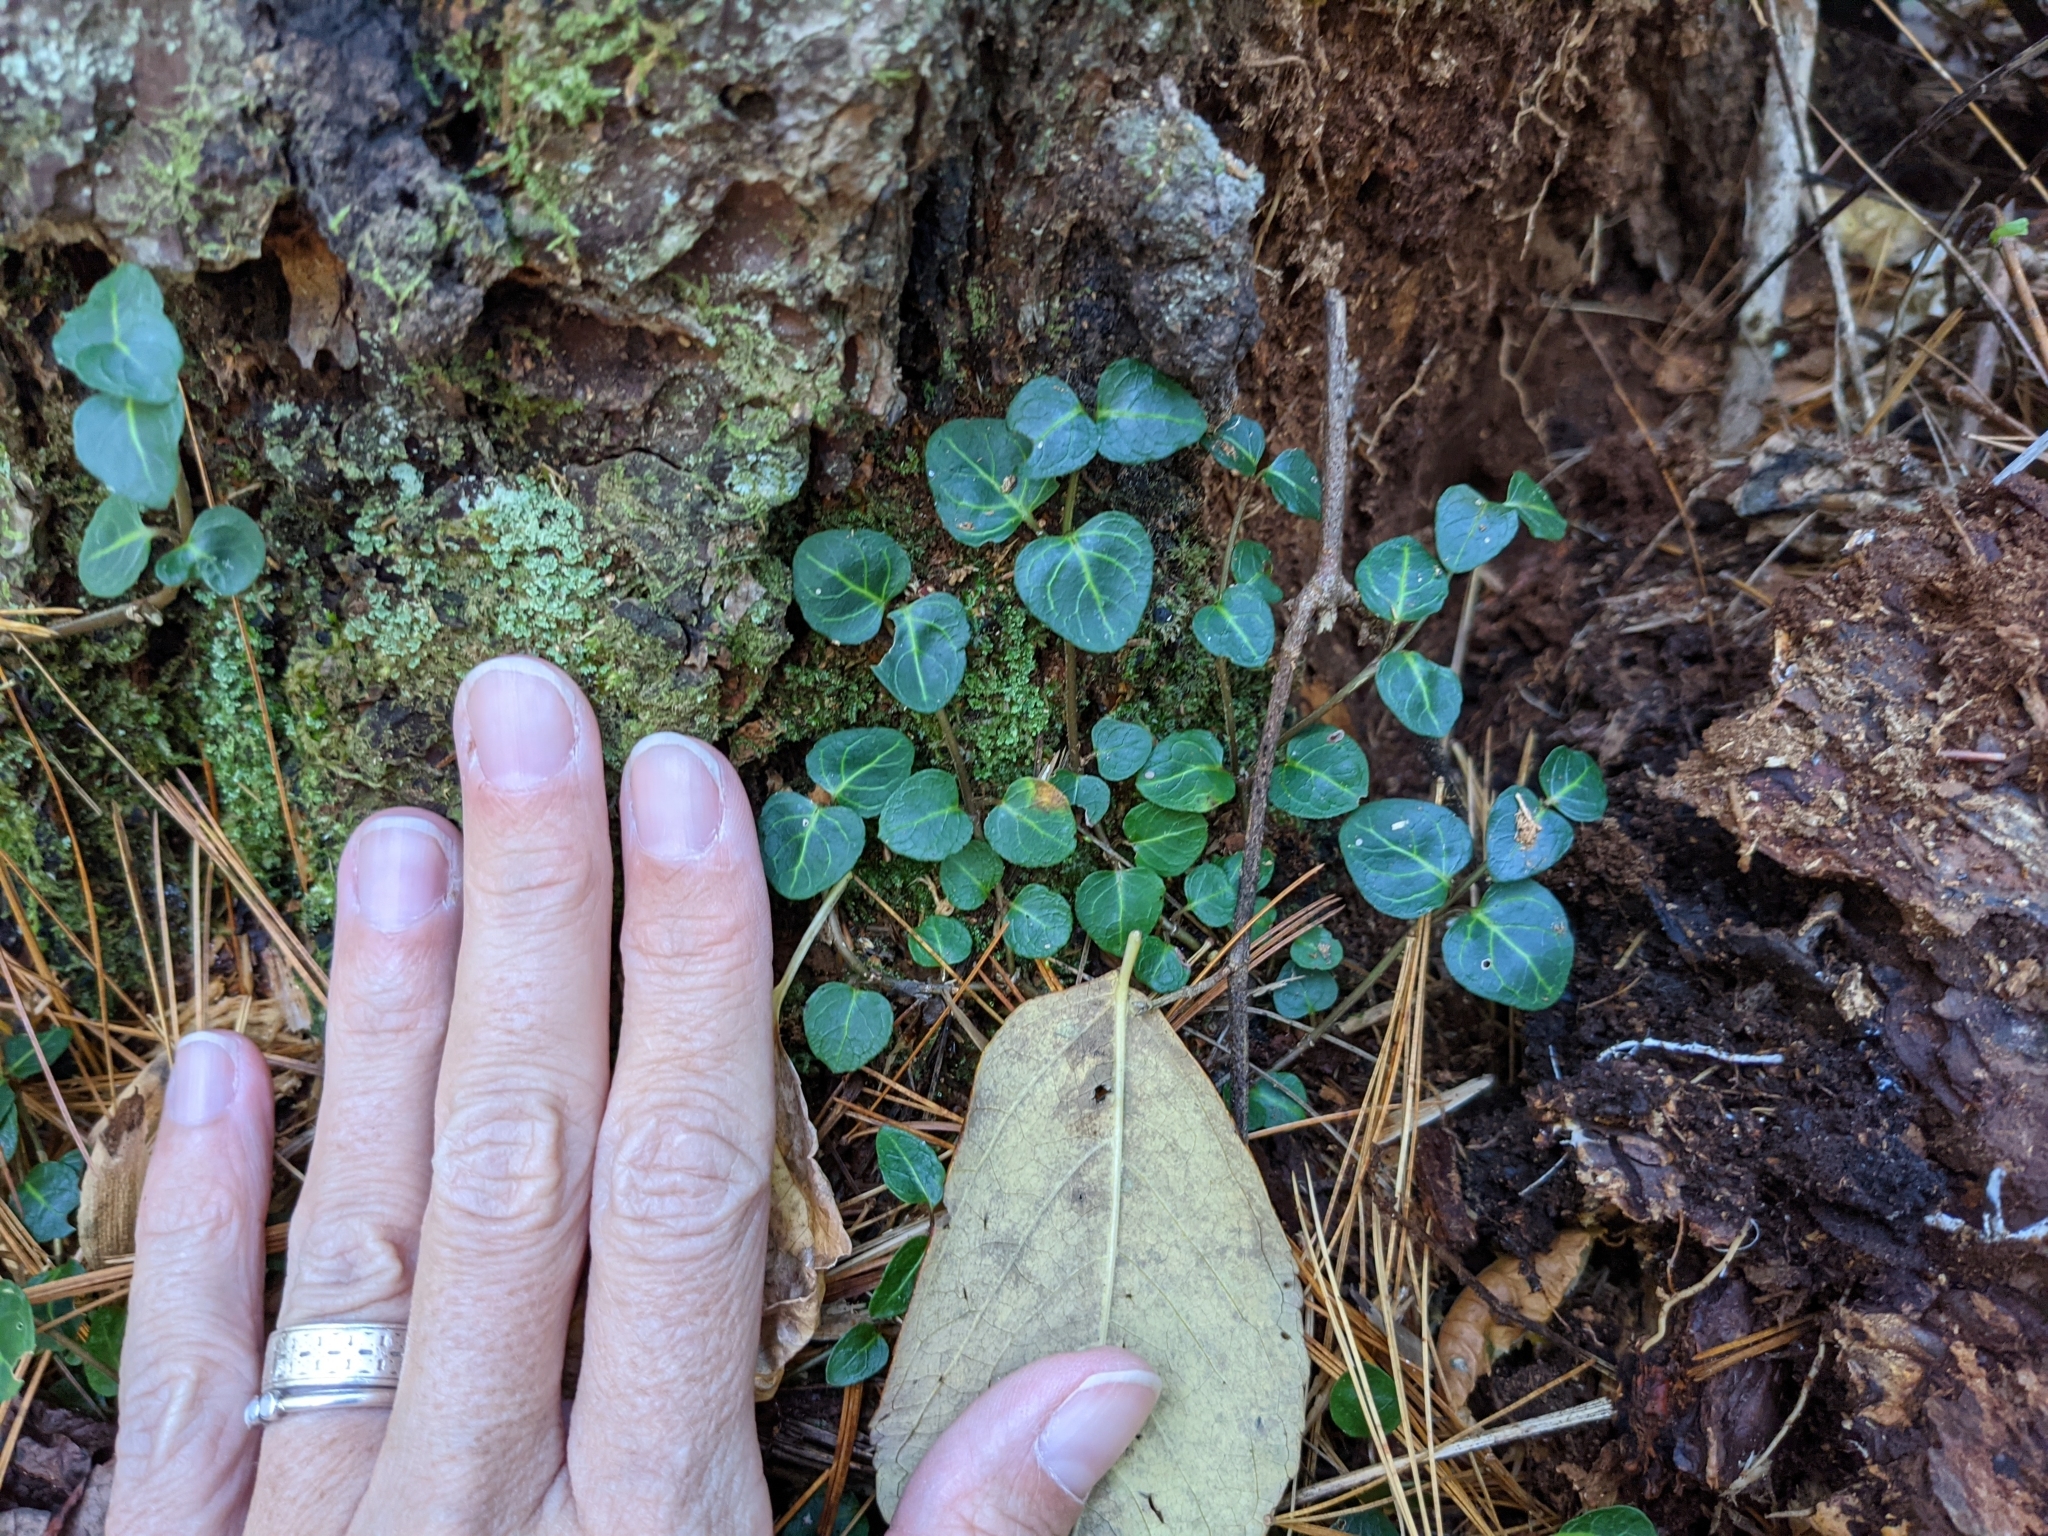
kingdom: Plantae
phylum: Tracheophyta
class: Magnoliopsida
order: Gentianales
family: Rubiaceae
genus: Mitchella
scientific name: Mitchella repens
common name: Partridge-berry
